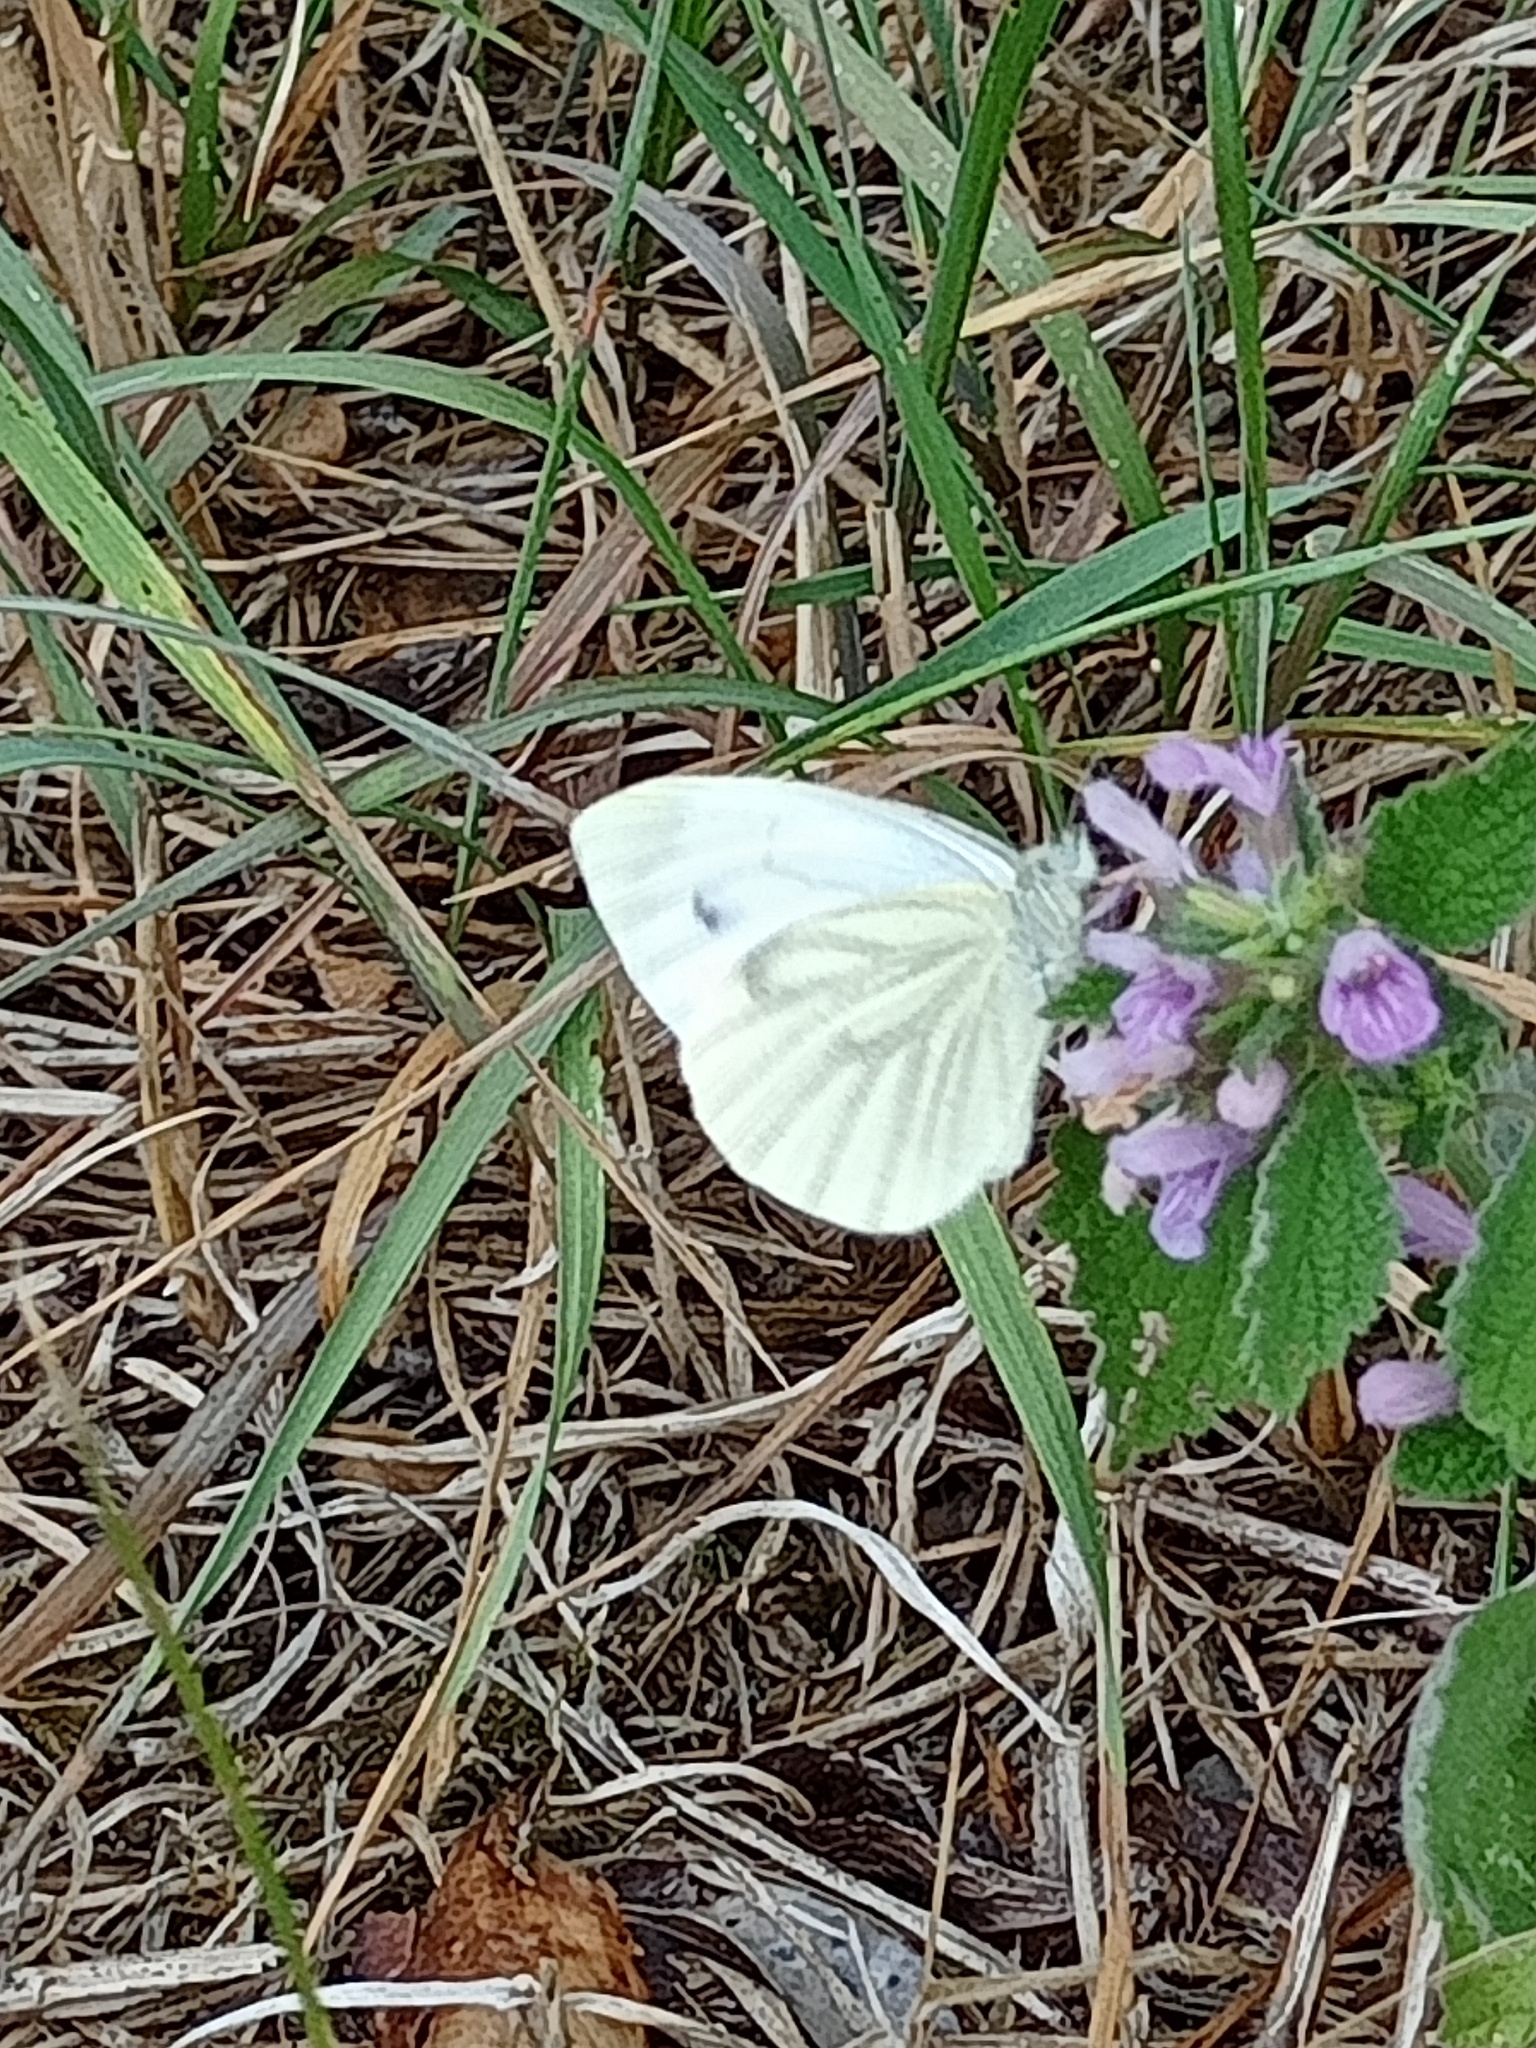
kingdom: Animalia
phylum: Arthropoda
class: Insecta
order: Lepidoptera
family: Pieridae
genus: Pieris
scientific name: Pieris napi
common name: Green-veined white
